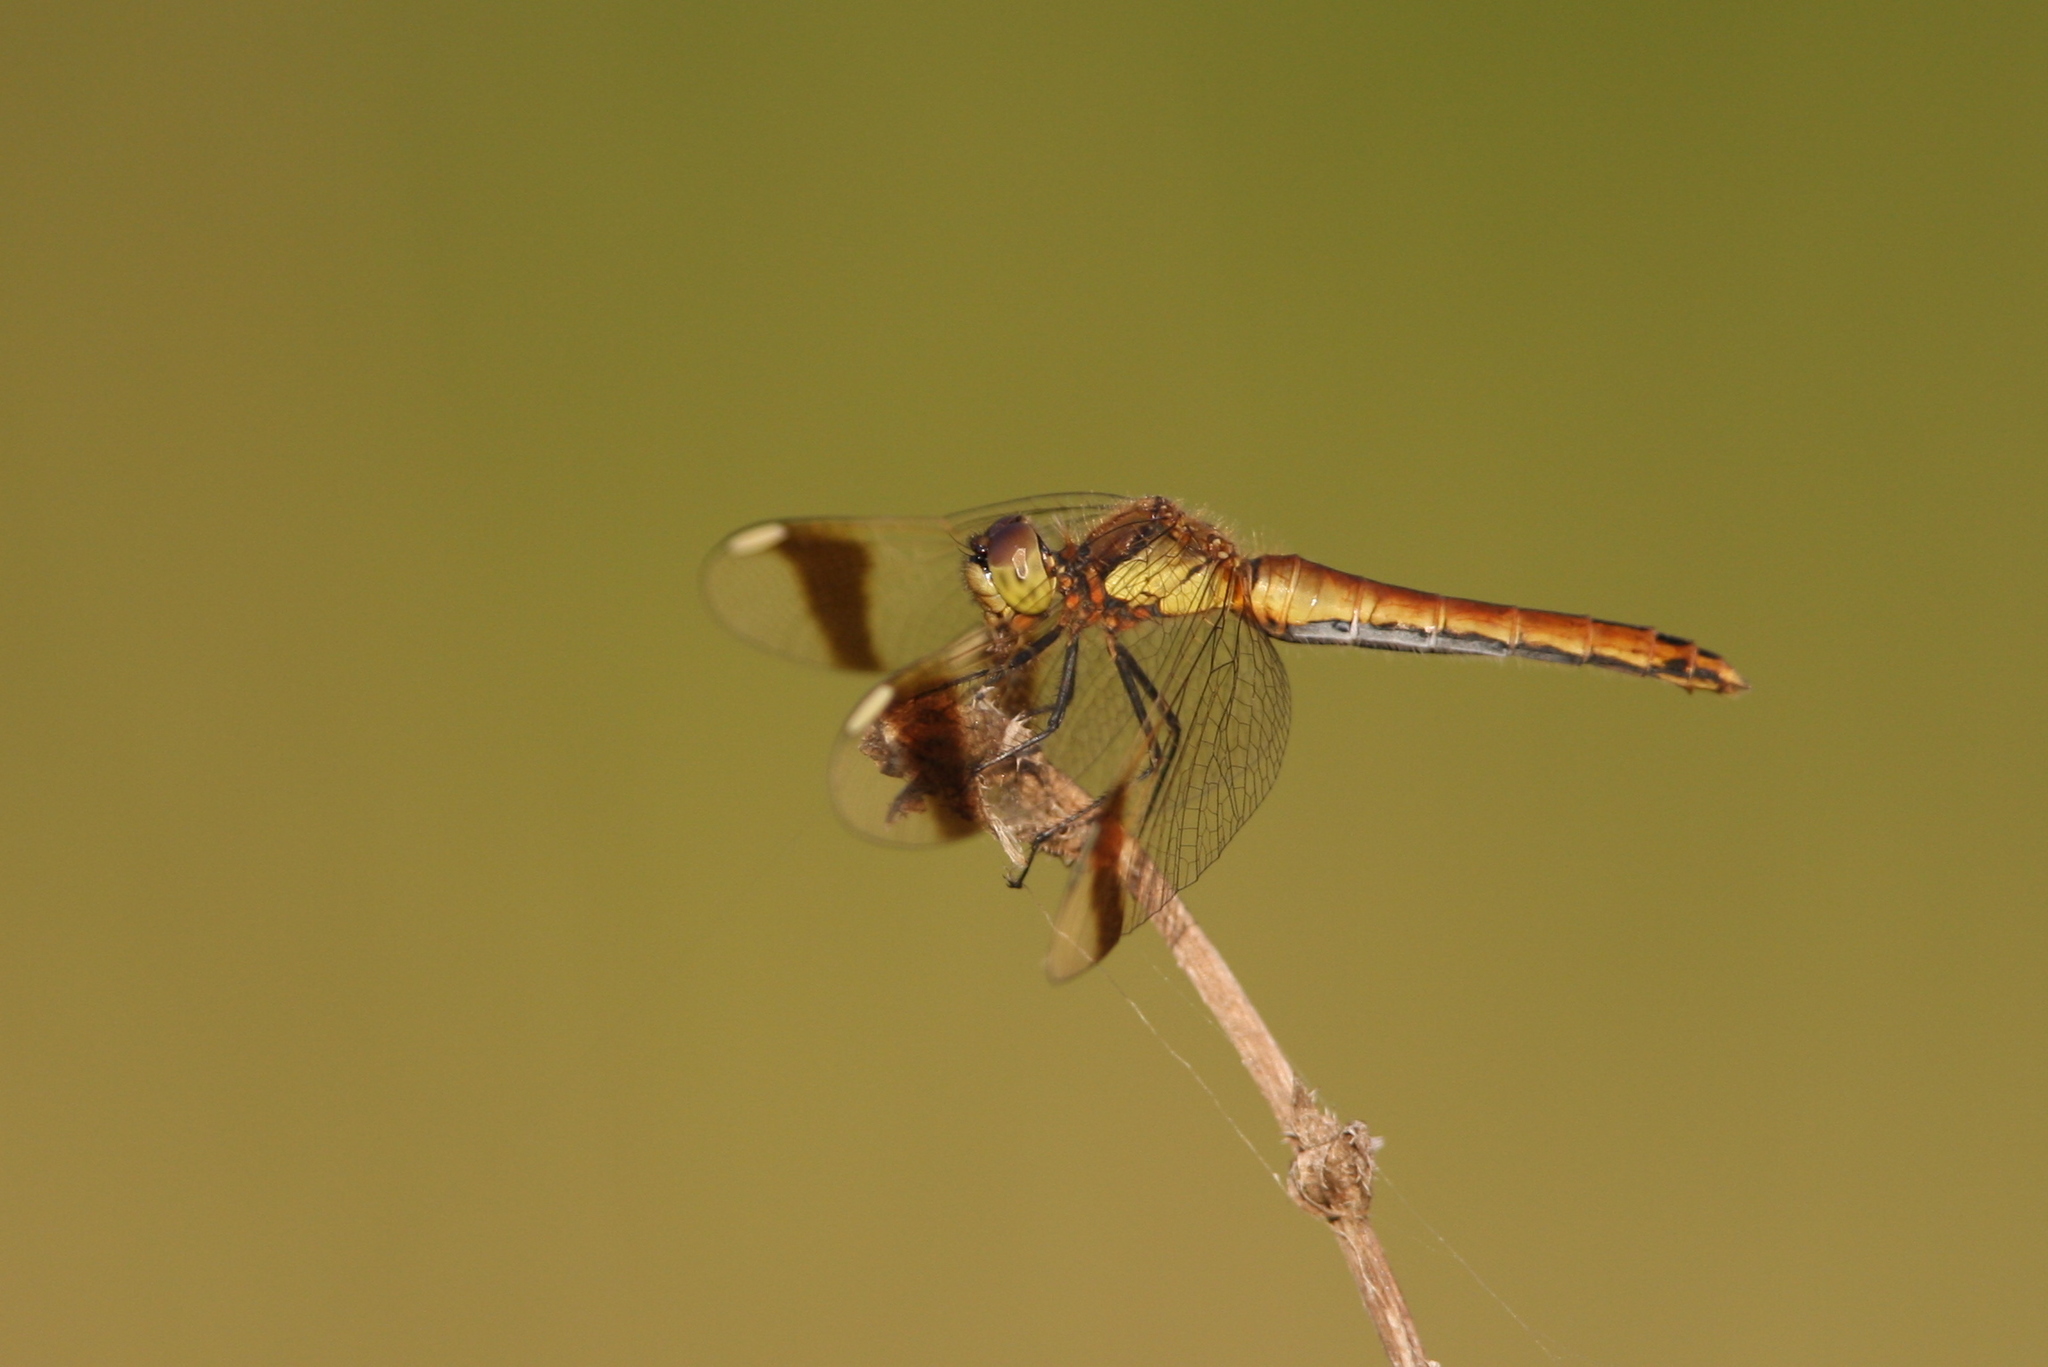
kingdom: Animalia
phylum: Arthropoda
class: Insecta
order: Odonata
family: Libellulidae
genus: Sympetrum
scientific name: Sympetrum pedemontanum
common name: Banded darter
